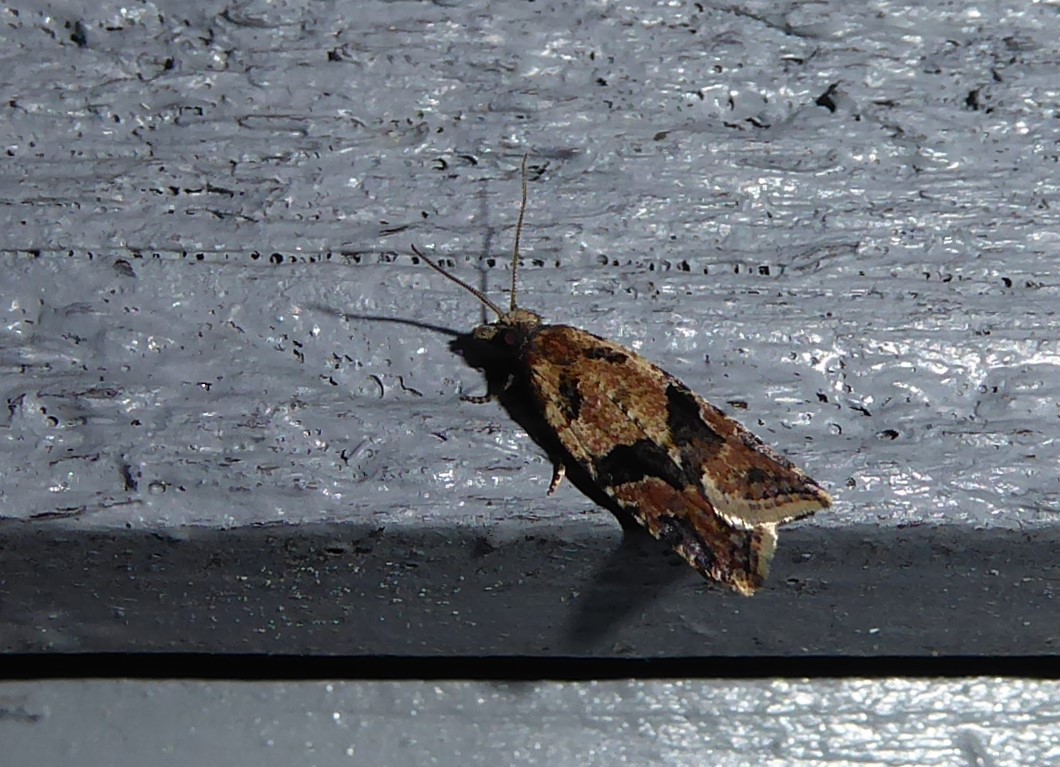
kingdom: Animalia
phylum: Arthropoda
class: Insecta
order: Lepidoptera
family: Tortricidae
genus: Capua
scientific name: Capua semiferana
